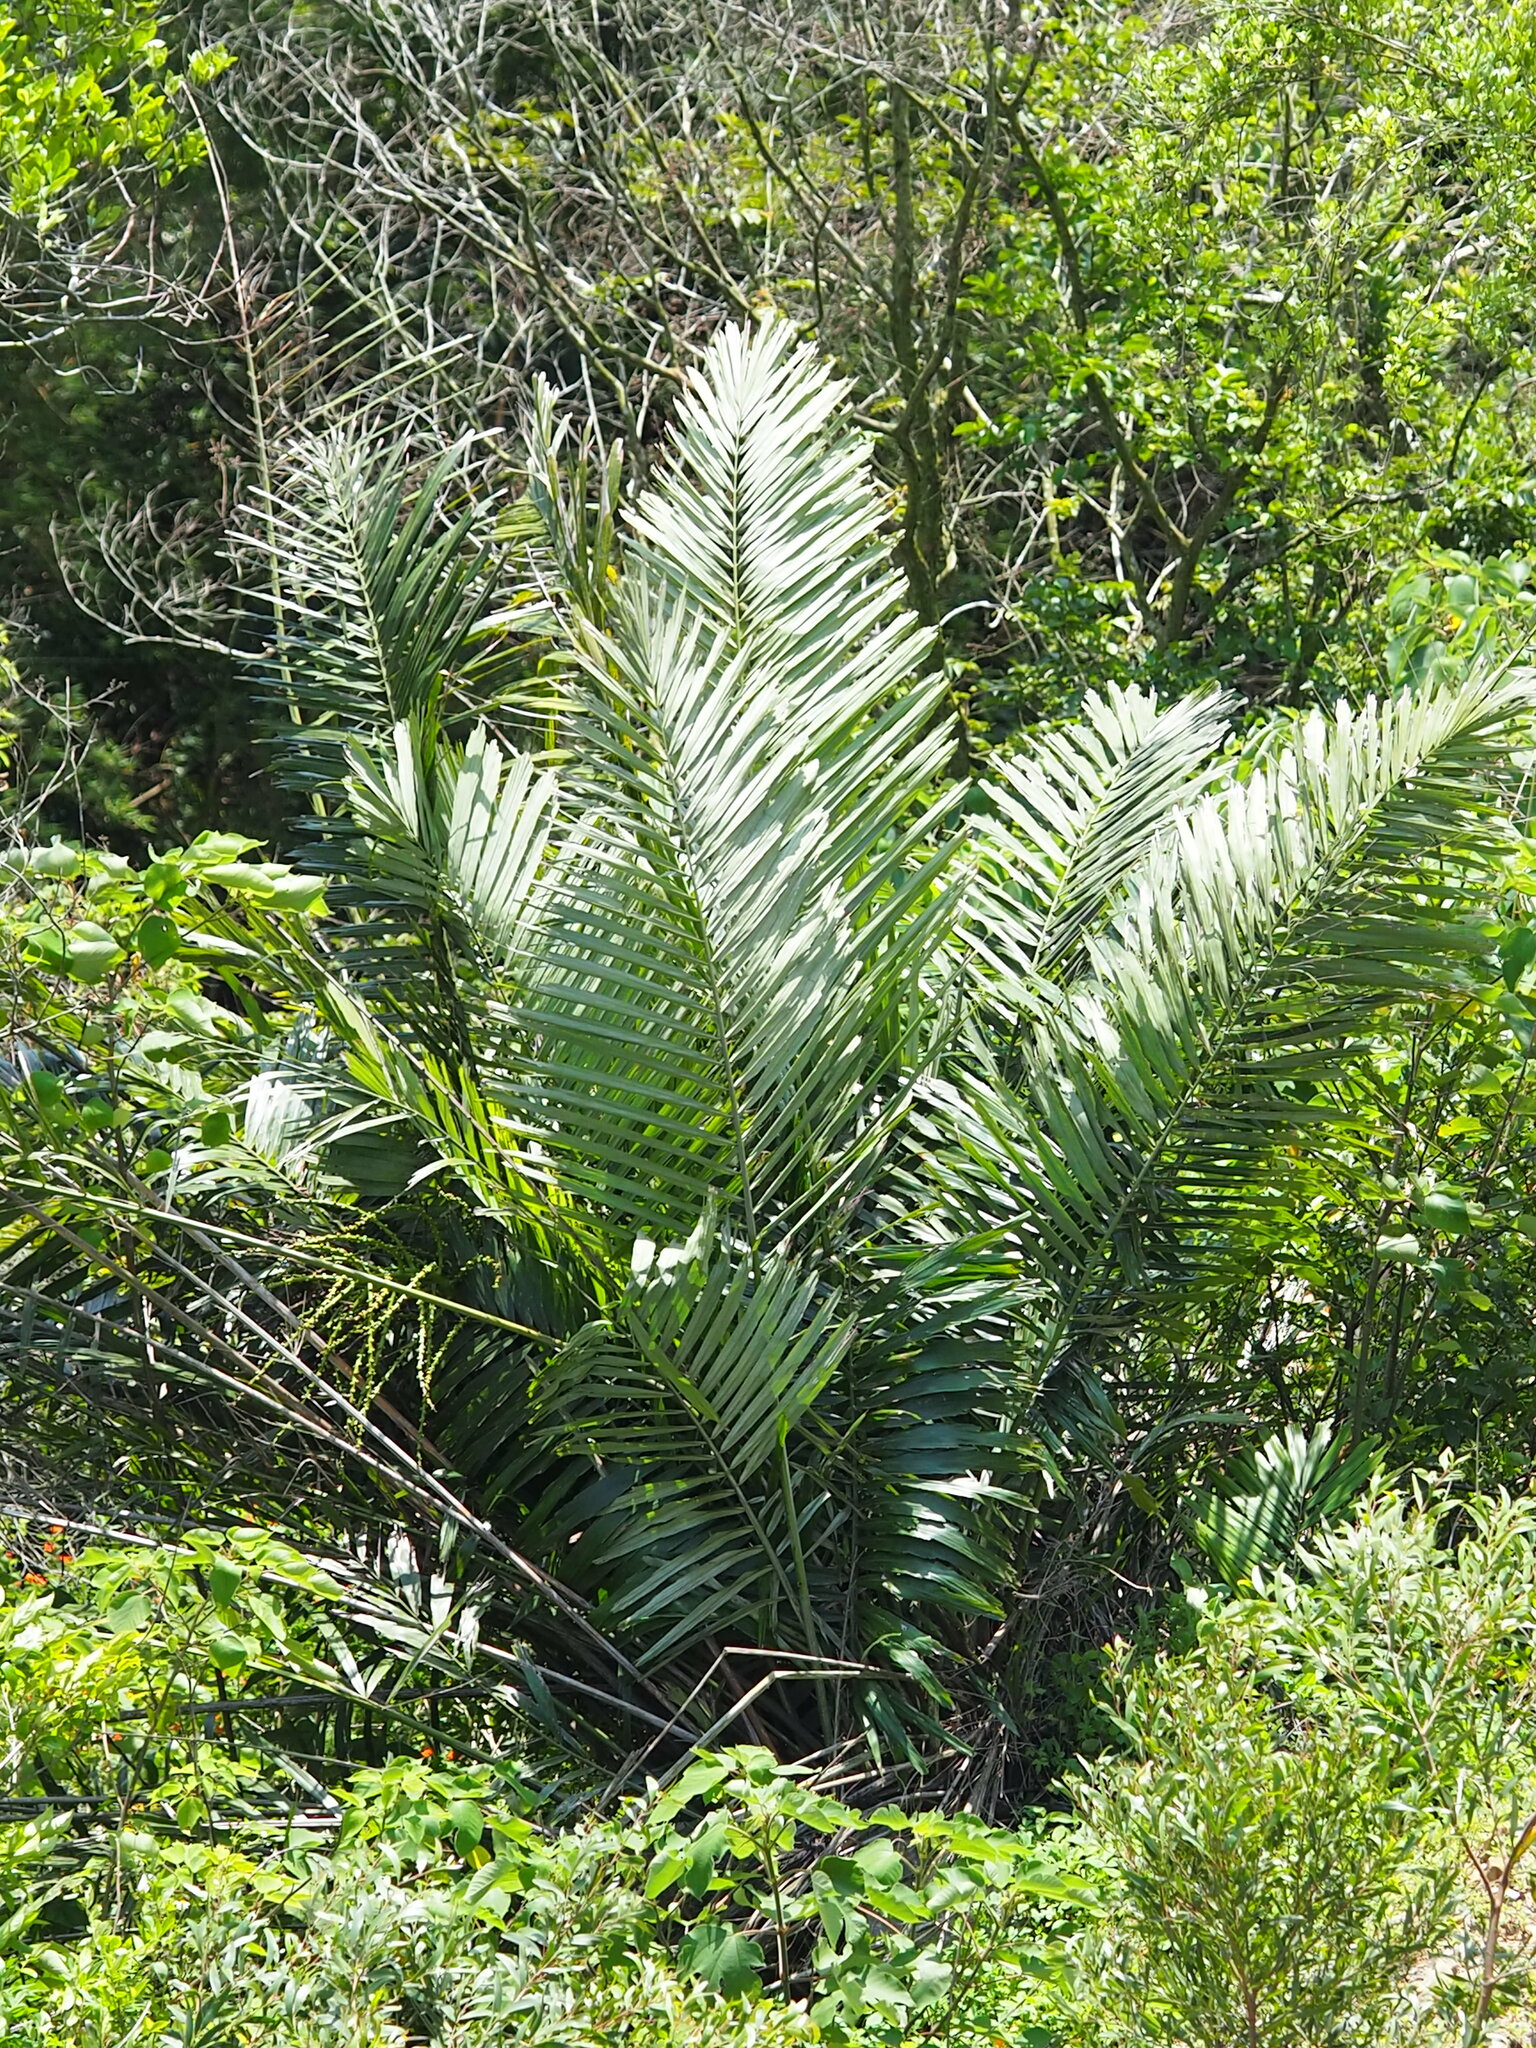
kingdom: Plantae
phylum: Tracheophyta
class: Liliopsida
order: Arecales
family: Arecaceae
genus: Arenga
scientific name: Arenga engleri
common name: Formosan sugar palm
